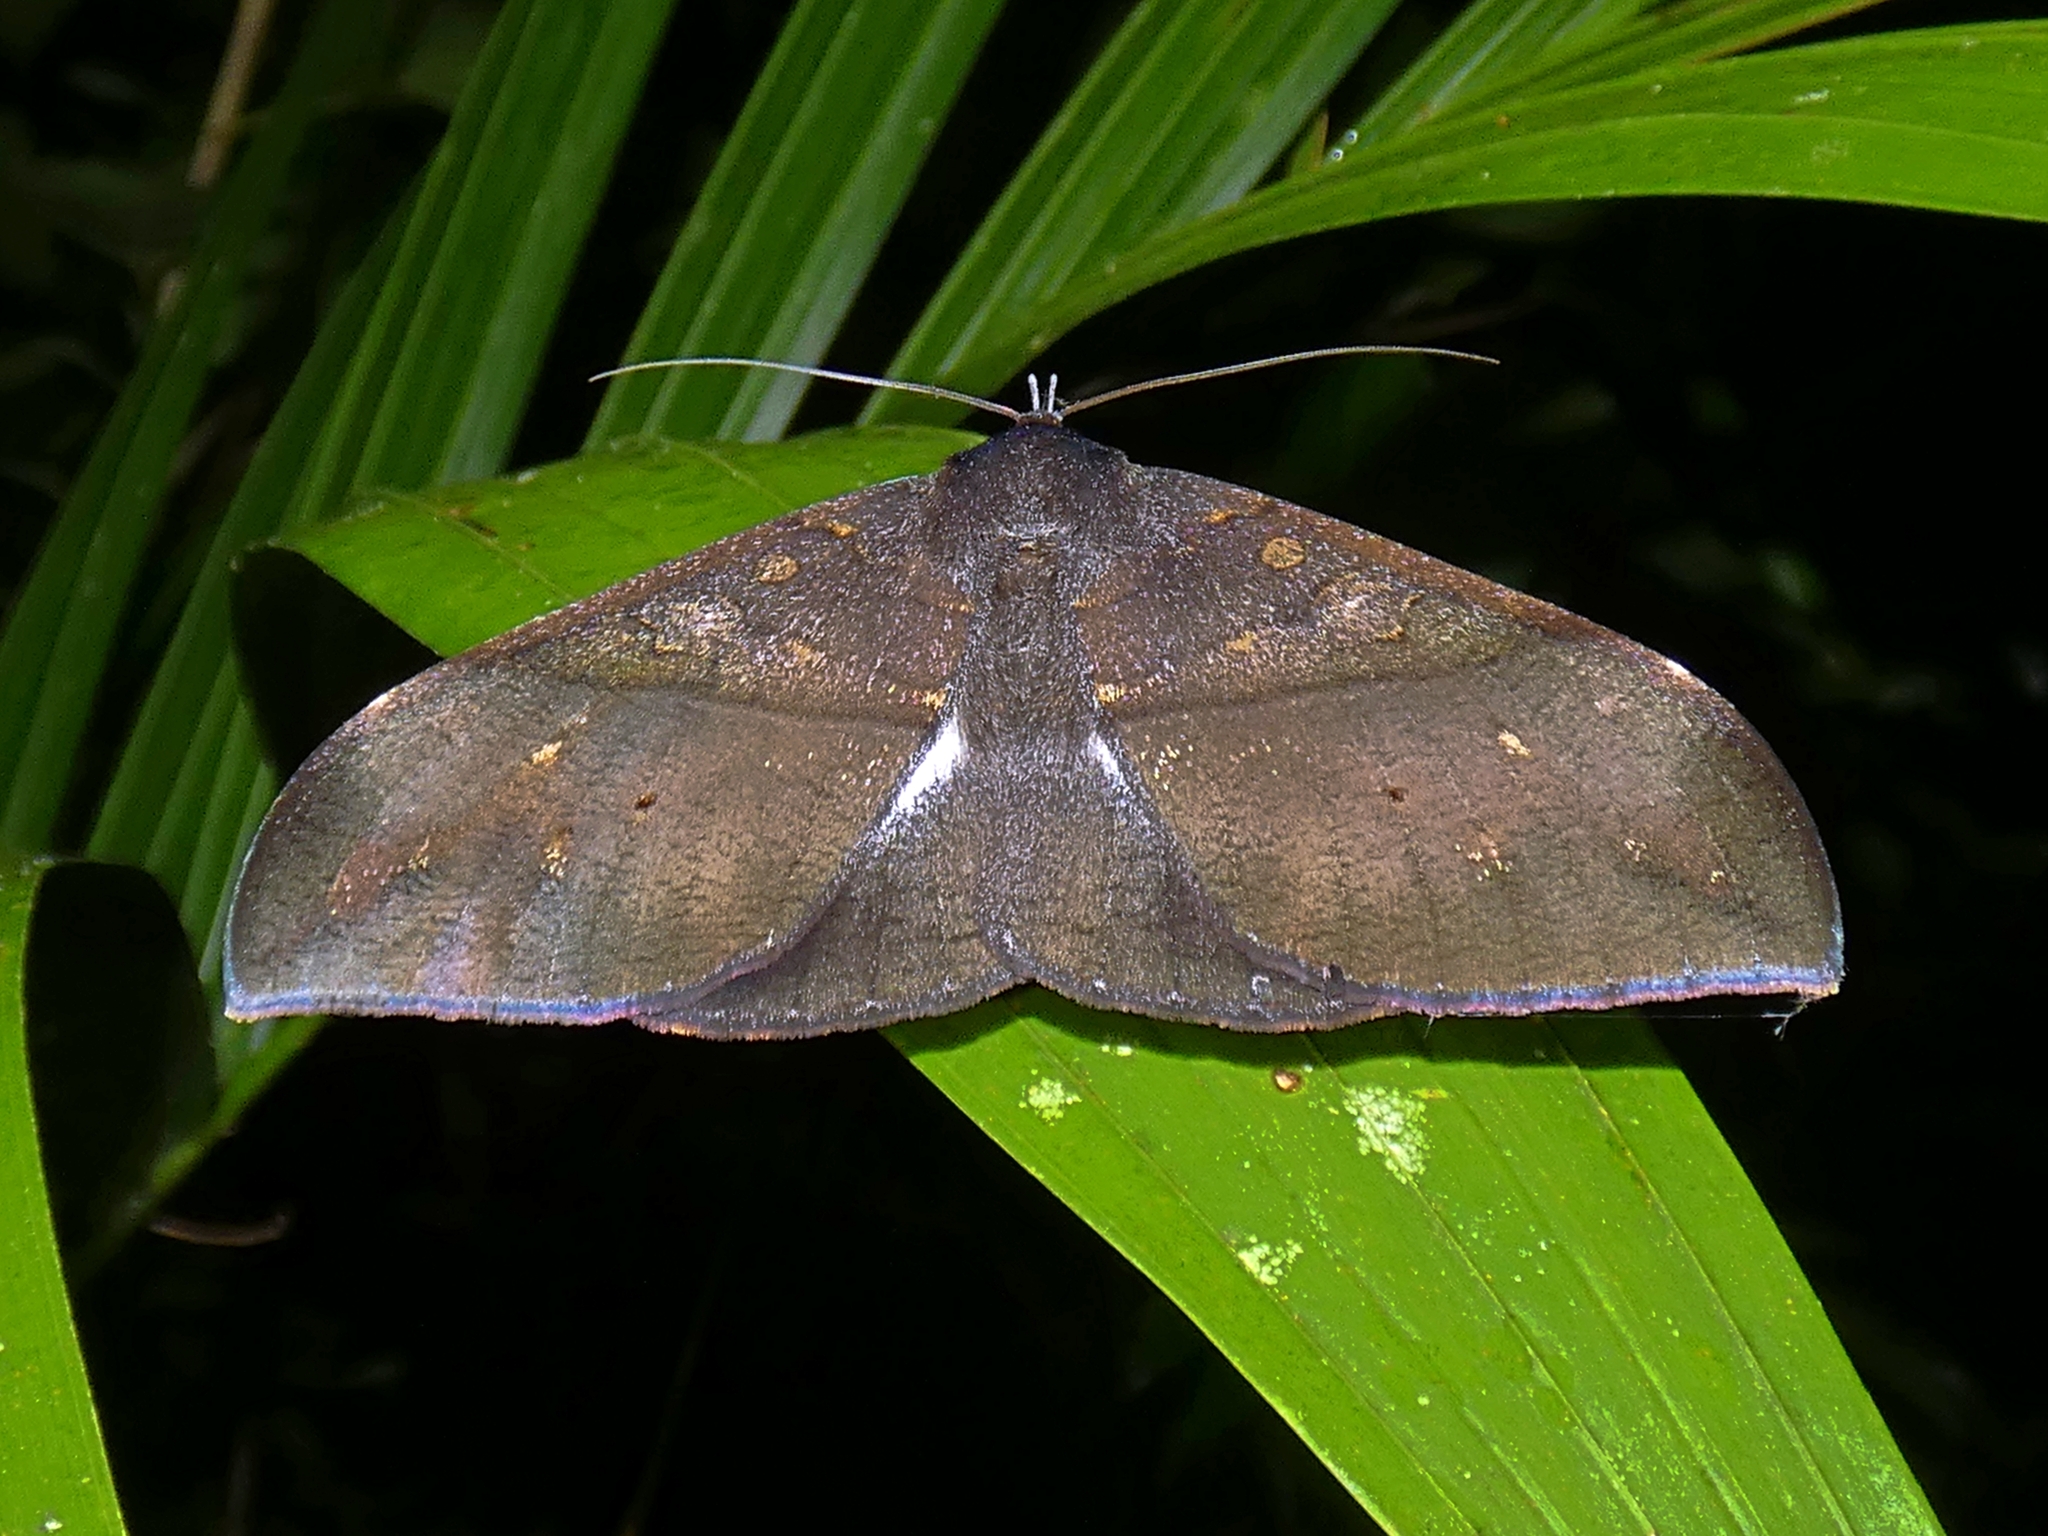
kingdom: Animalia
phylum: Arthropoda
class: Insecta
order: Lepidoptera
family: Erebidae
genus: Ischyja
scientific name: Ischyja manlia
